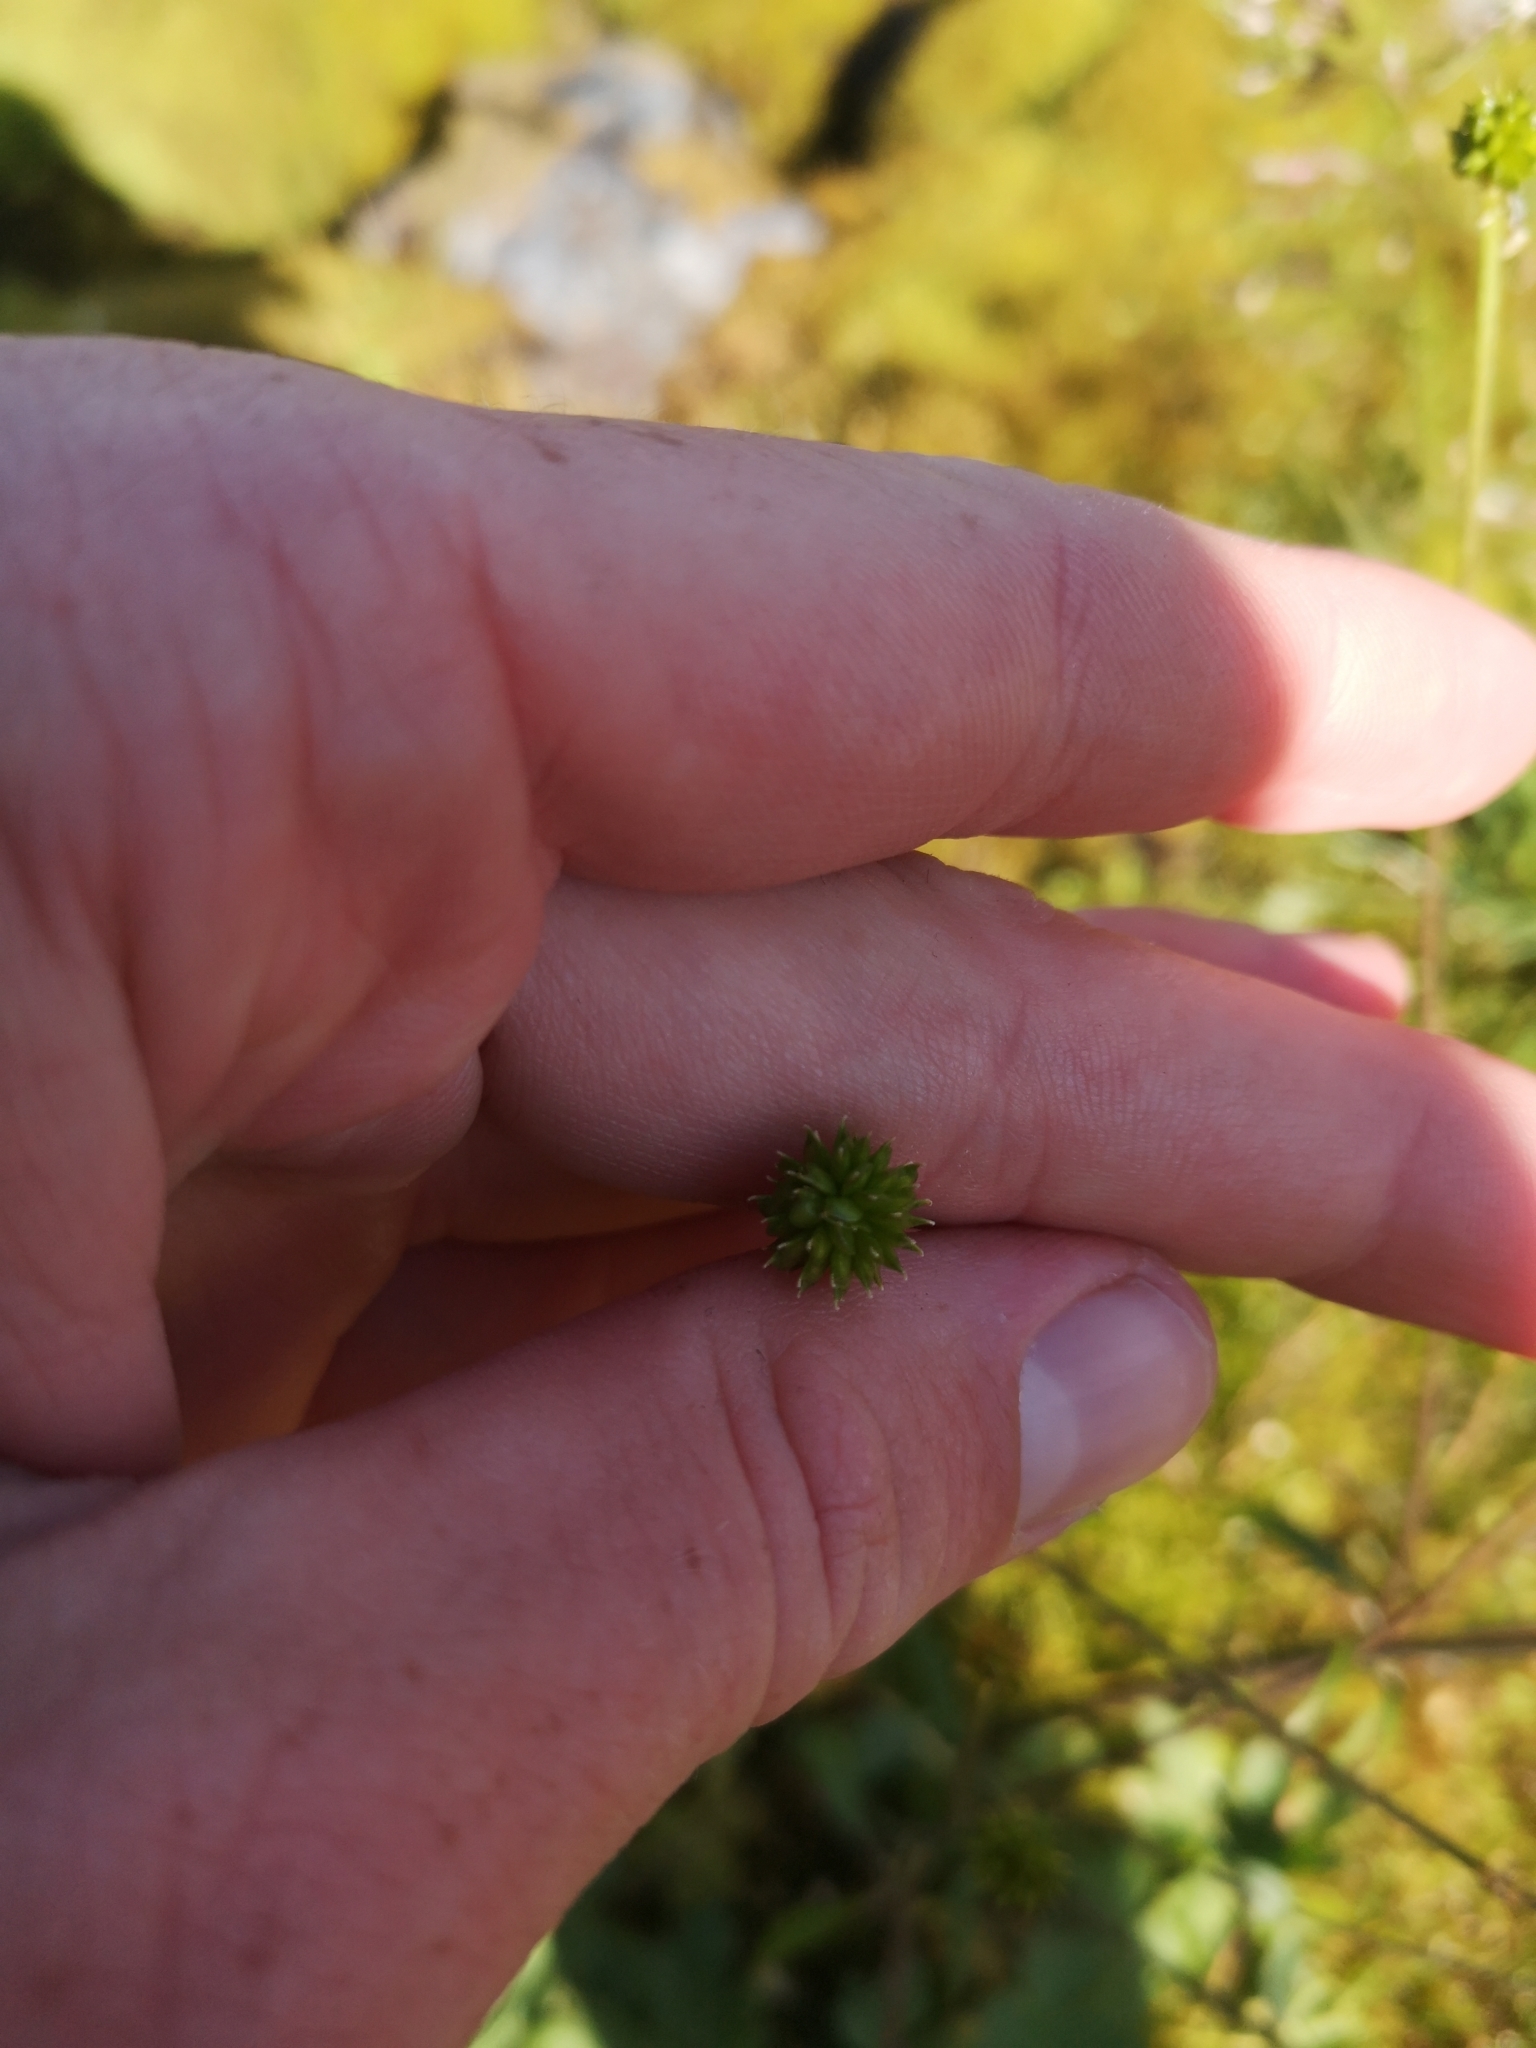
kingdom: Plantae
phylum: Tracheophyta
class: Magnoliopsida
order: Ranunculales
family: Ranunculaceae
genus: Ranunculus
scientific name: Ranunculus acris
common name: Meadow buttercup
